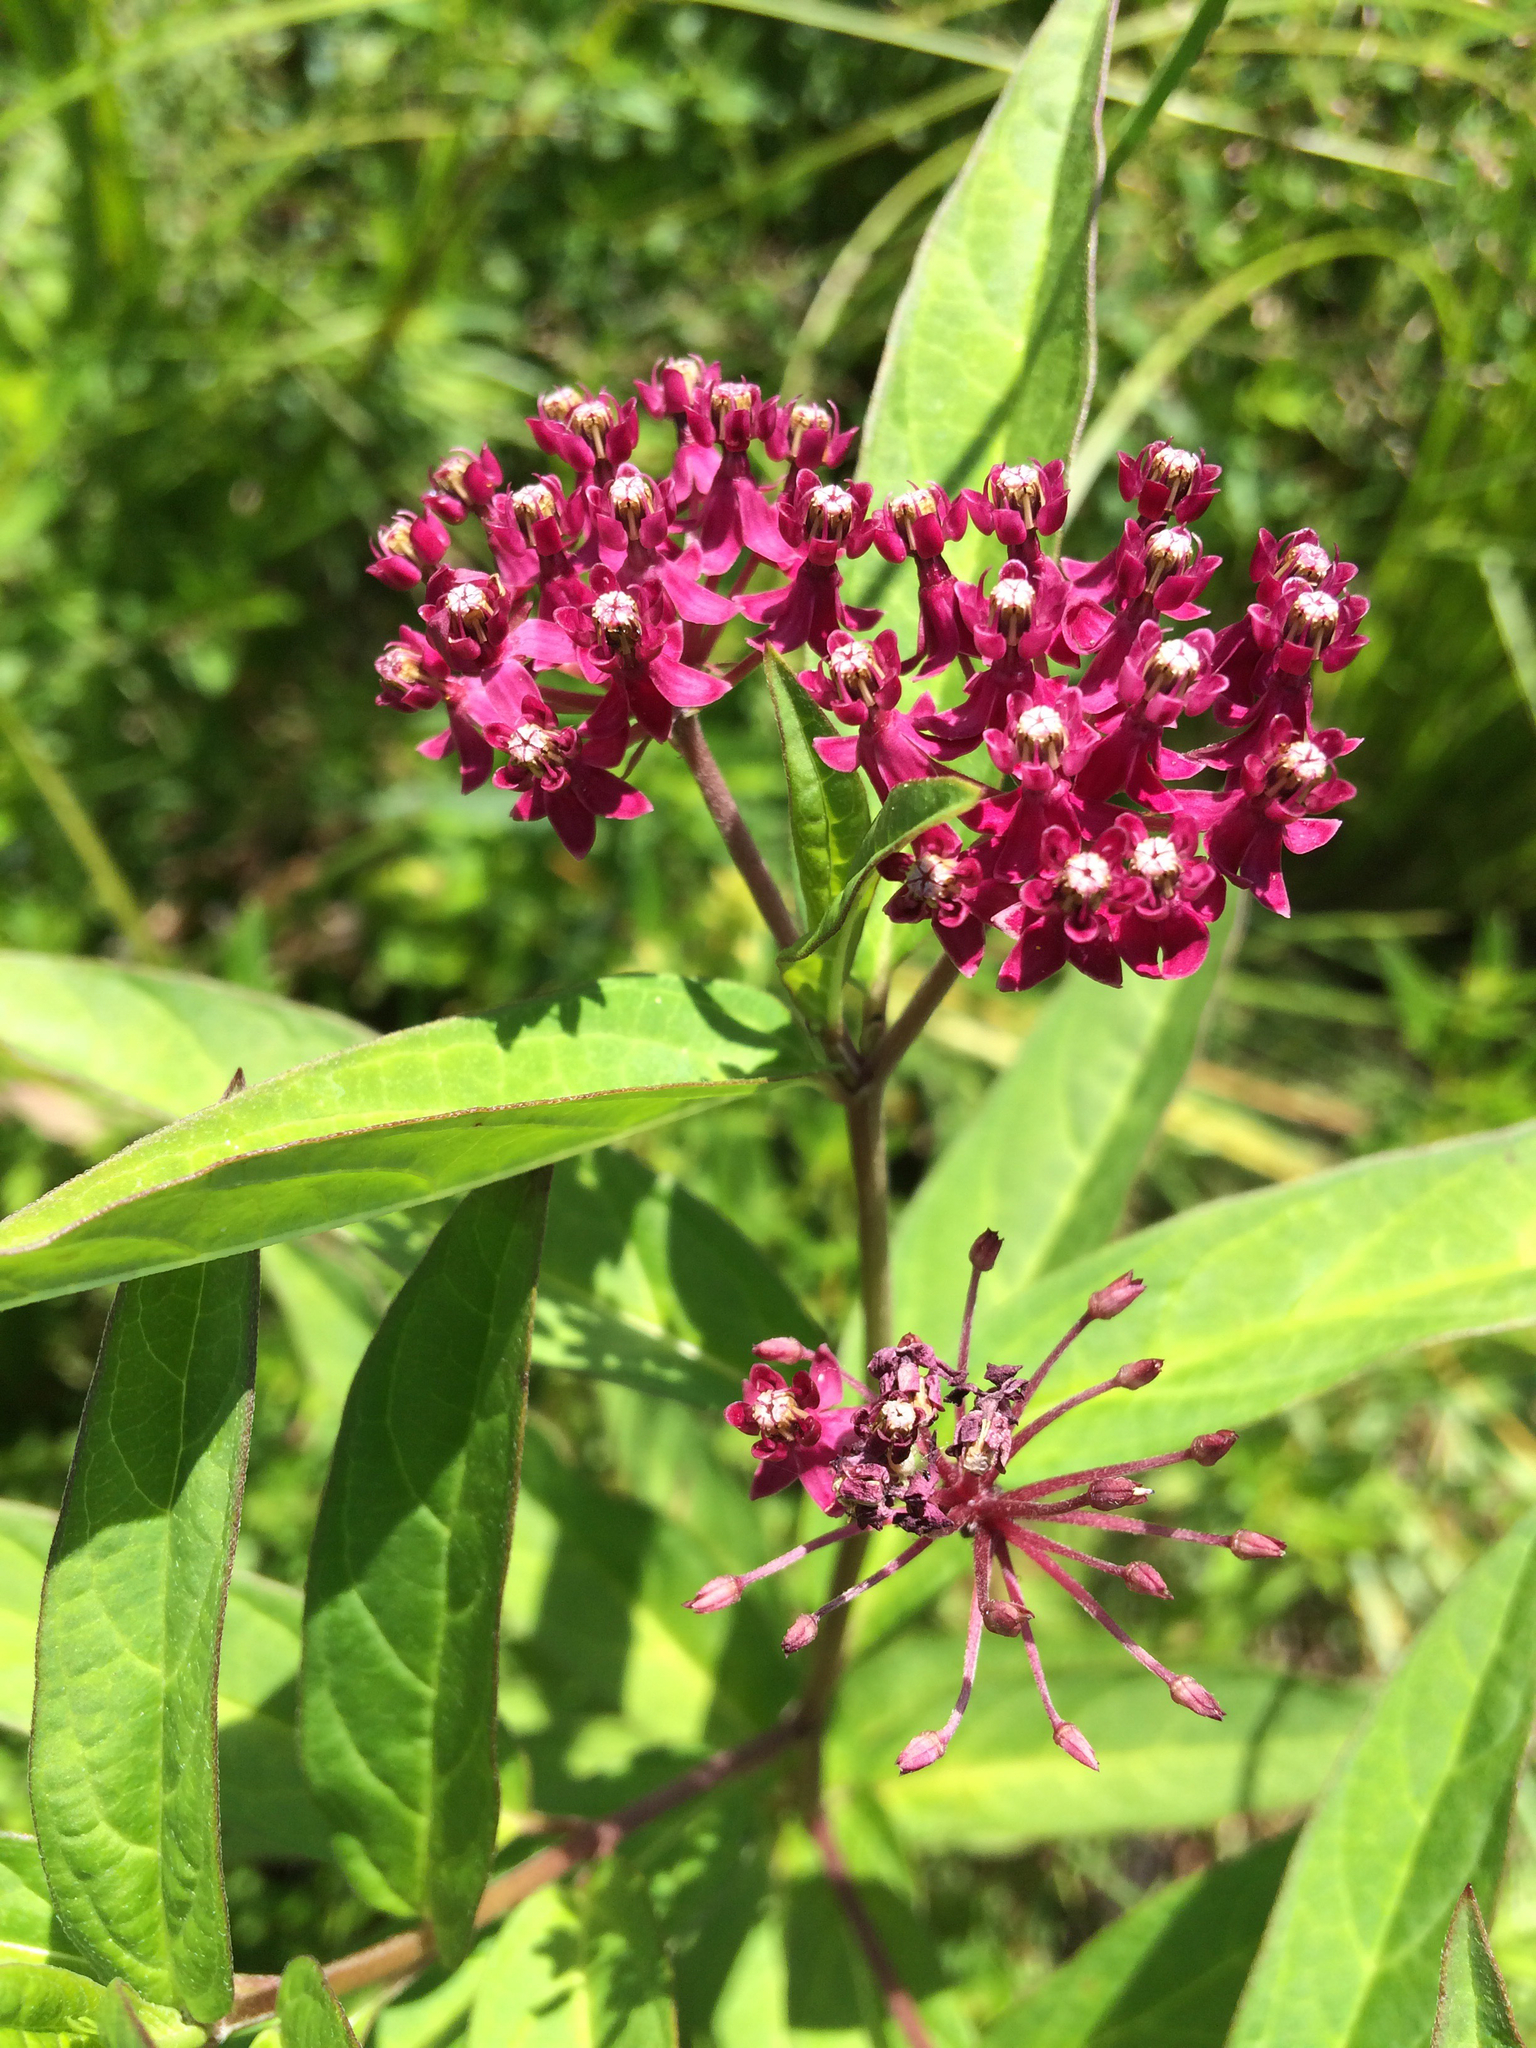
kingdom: Plantae
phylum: Tracheophyta
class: Magnoliopsida
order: Gentianales
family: Apocynaceae
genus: Asclepias
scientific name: Asclepias incarnata
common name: Swamp milkweed
